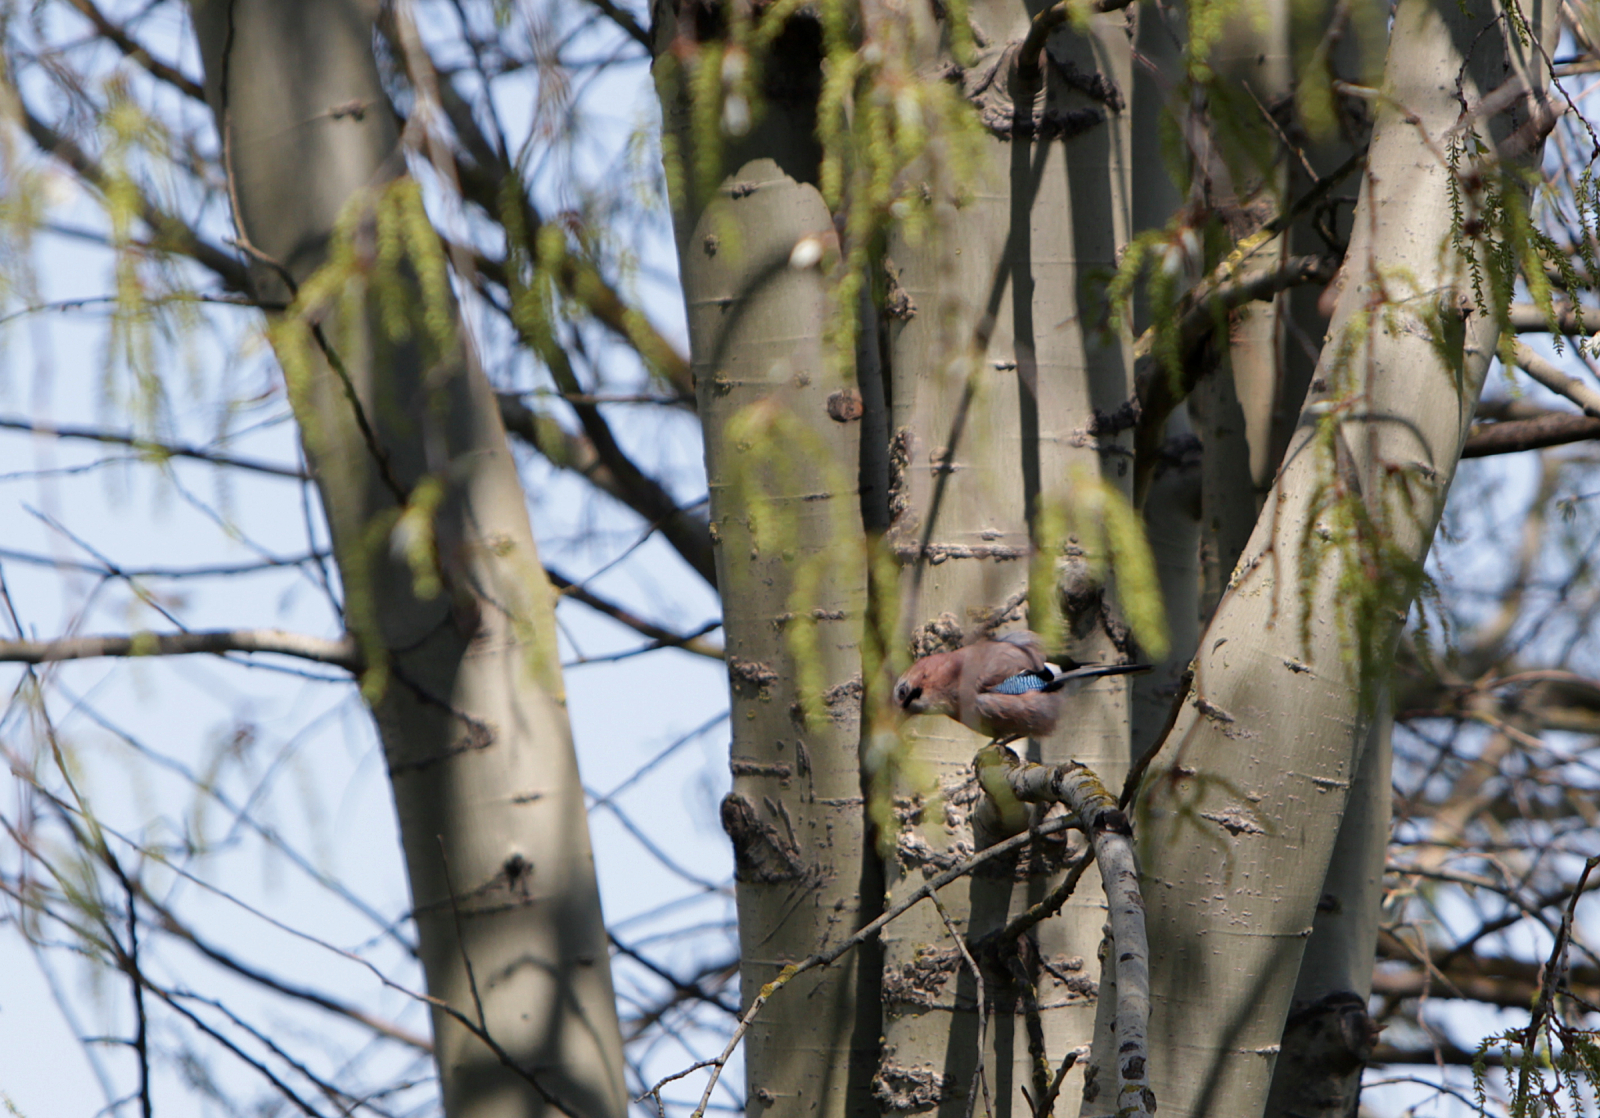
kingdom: Animalia
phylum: Chordata
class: Aves
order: Passeriformes
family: Corvidae
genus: Garrulus
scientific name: Garrulus glandarius
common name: Eurasian jay
